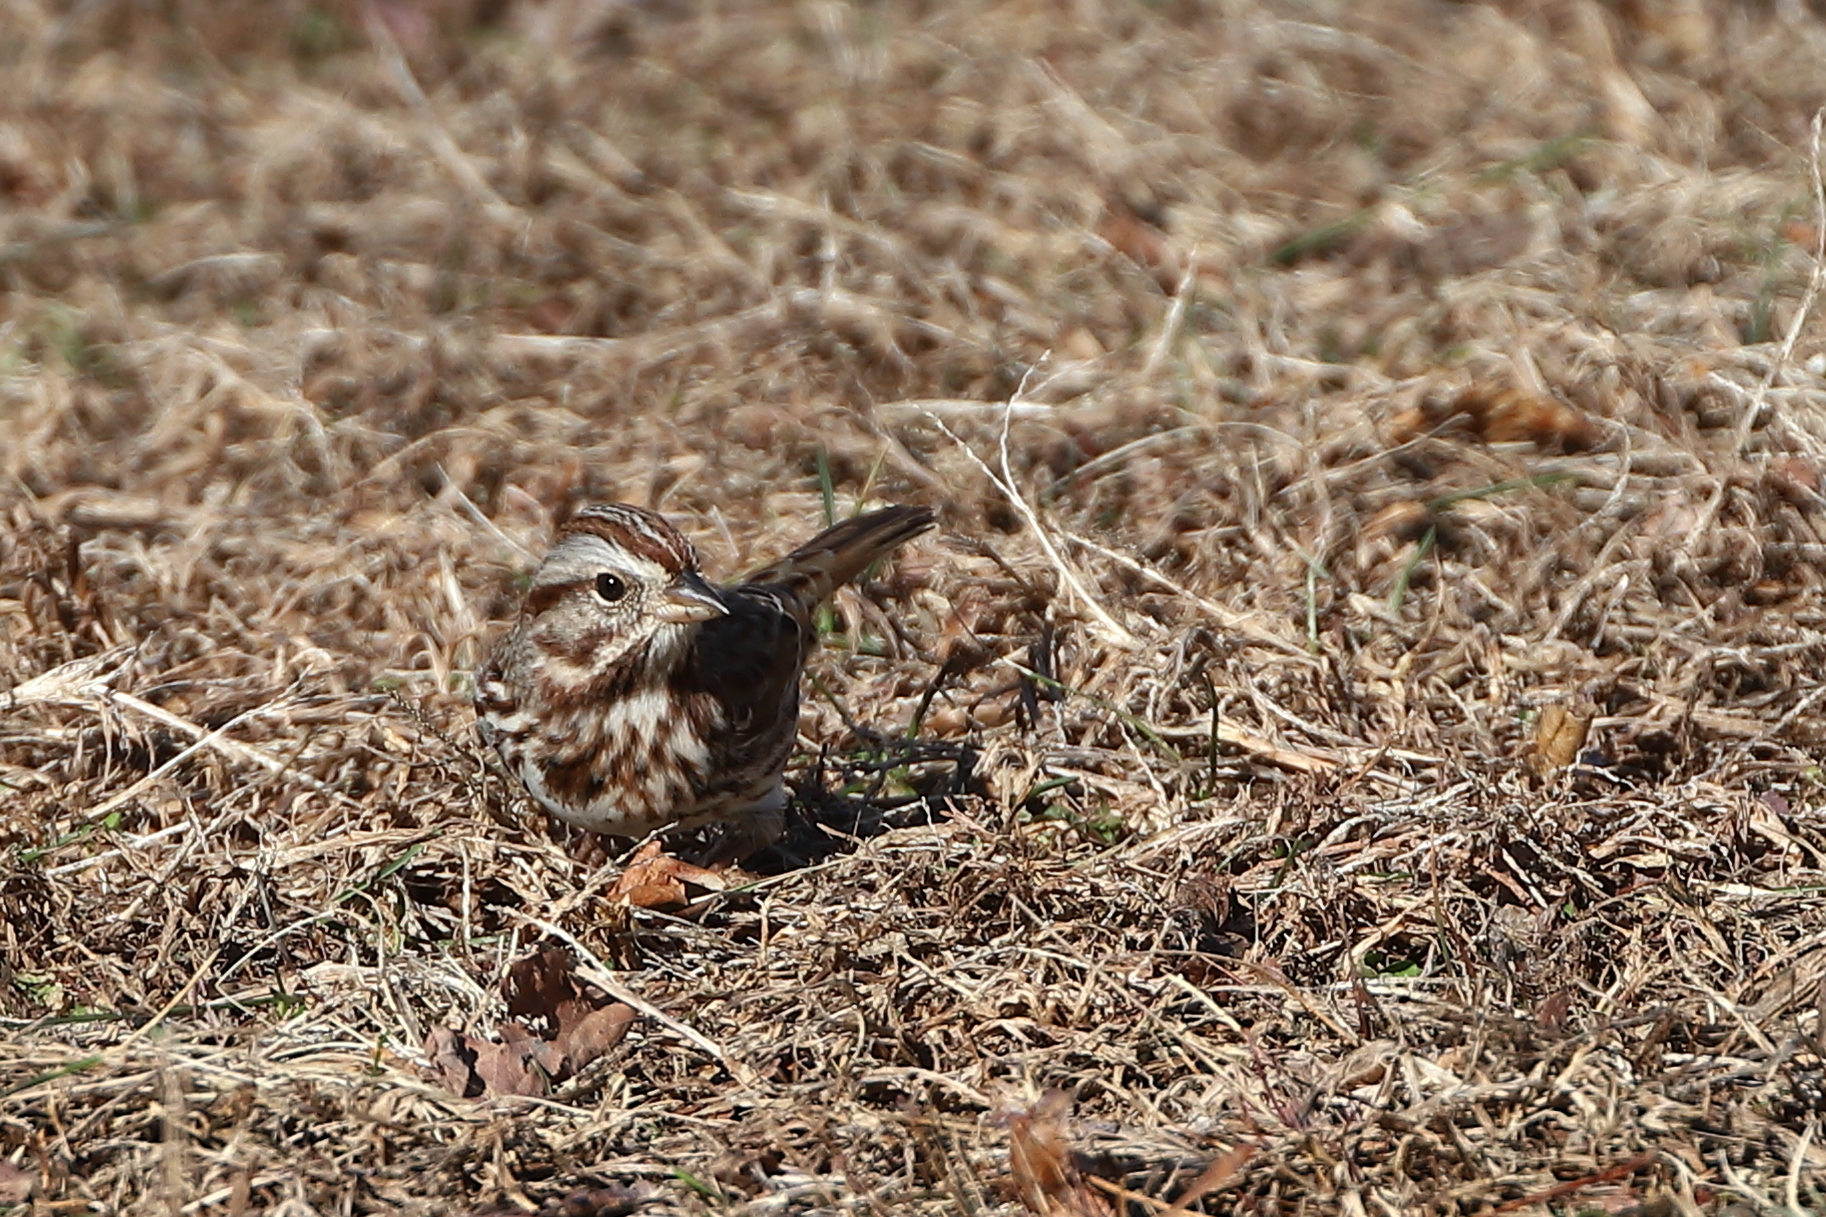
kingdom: Animalia
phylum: Chordata
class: Aves
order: Passeriformes
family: Passerellidae
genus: Melospiza
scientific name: Melospiza melodia
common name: Song sparrow
